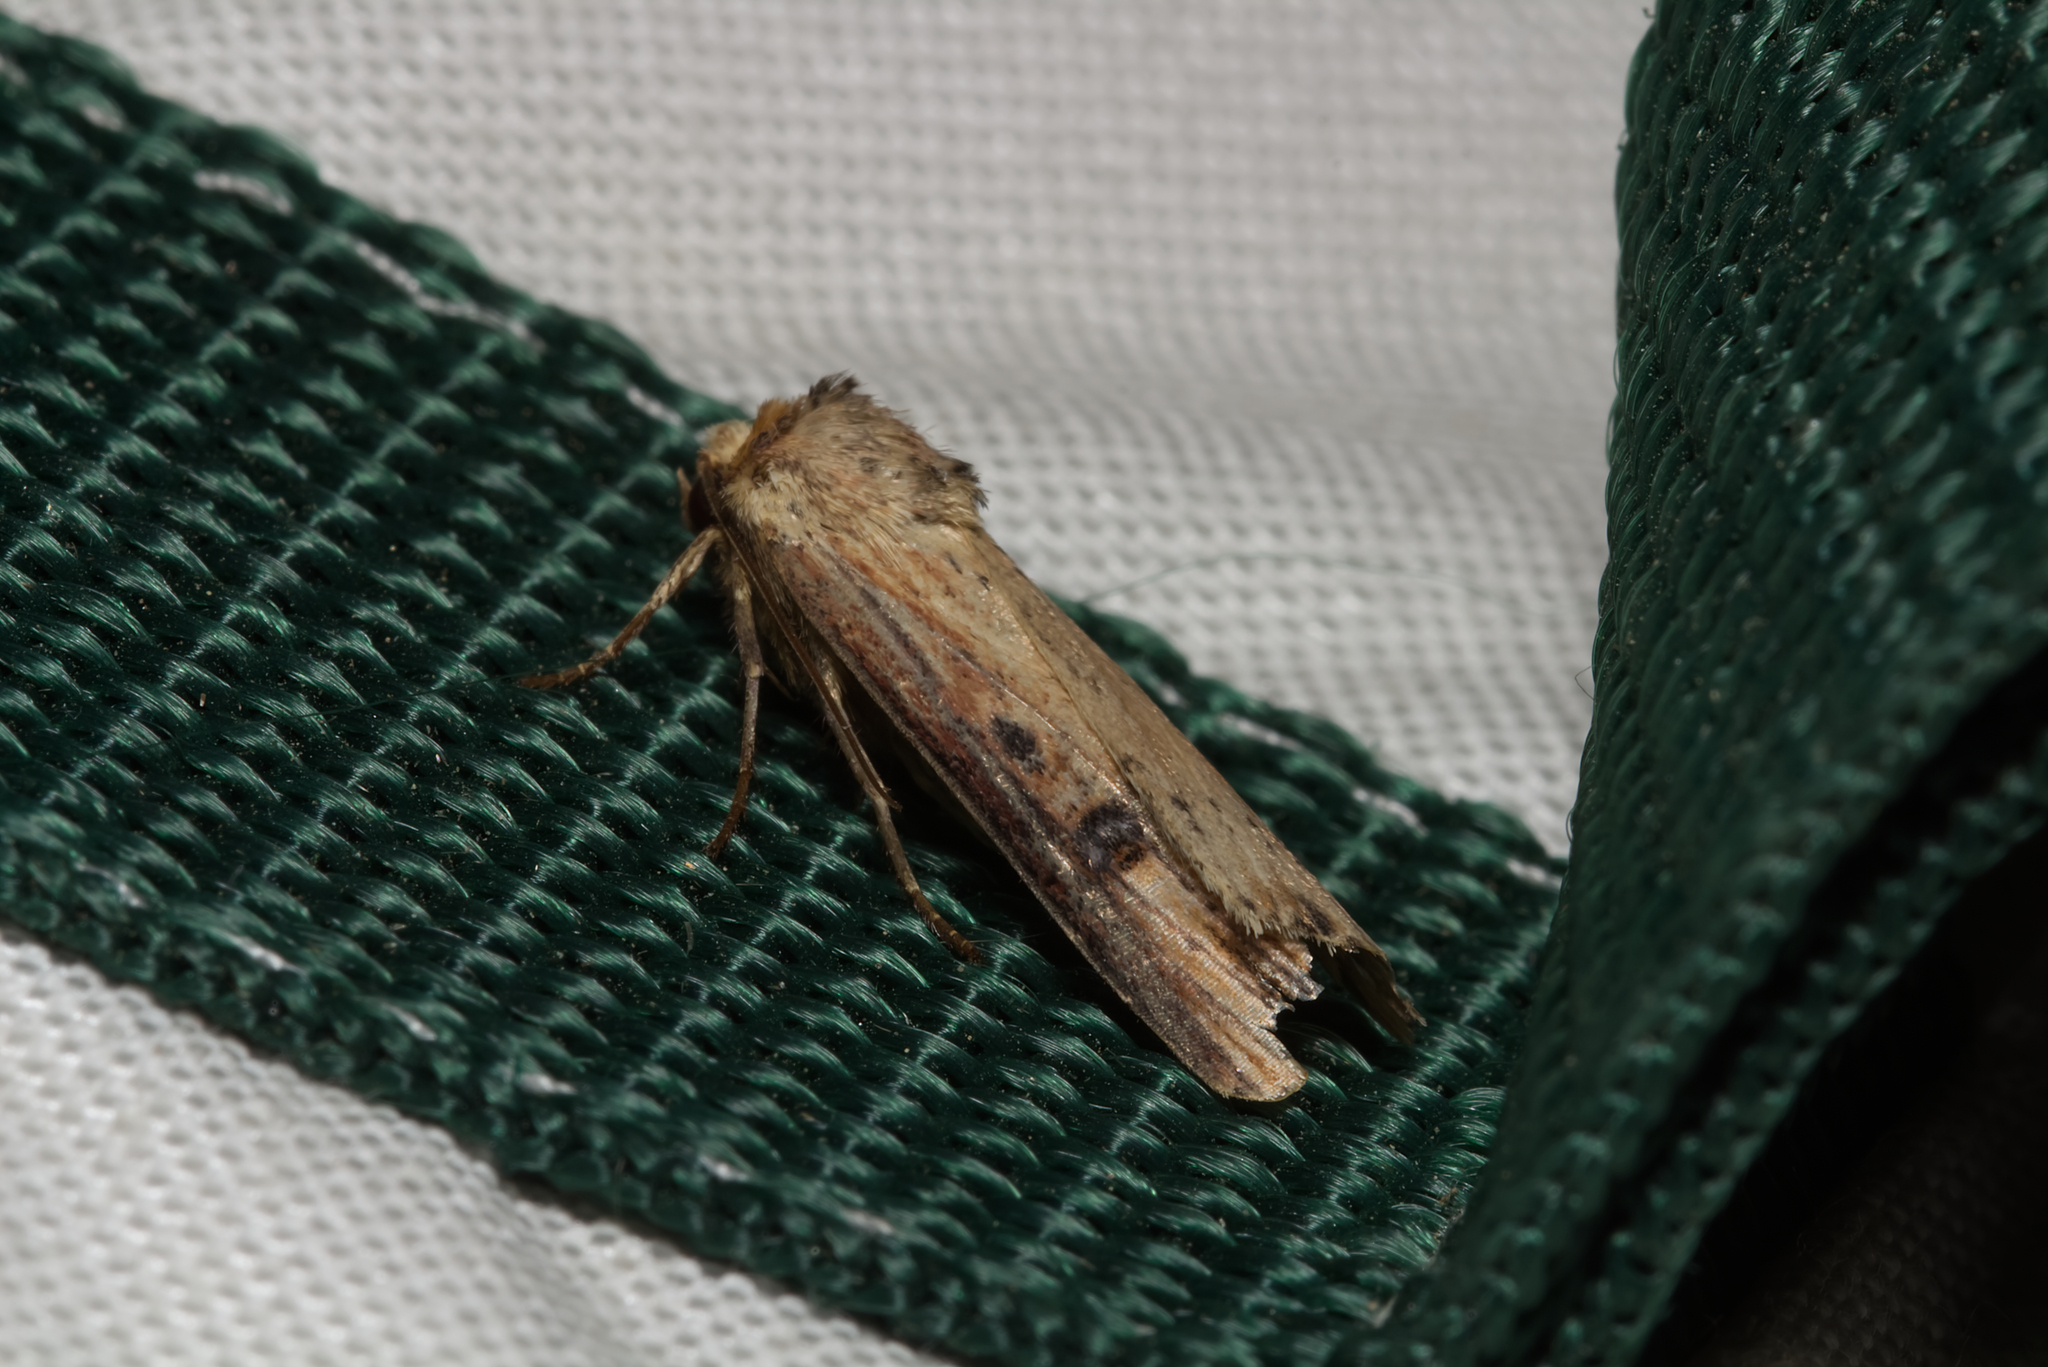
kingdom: Animalia
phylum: Arthropoda
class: Insecta
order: Lepidoptera
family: Noctuidae
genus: Axylia
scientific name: Axylia putris
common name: Flame
